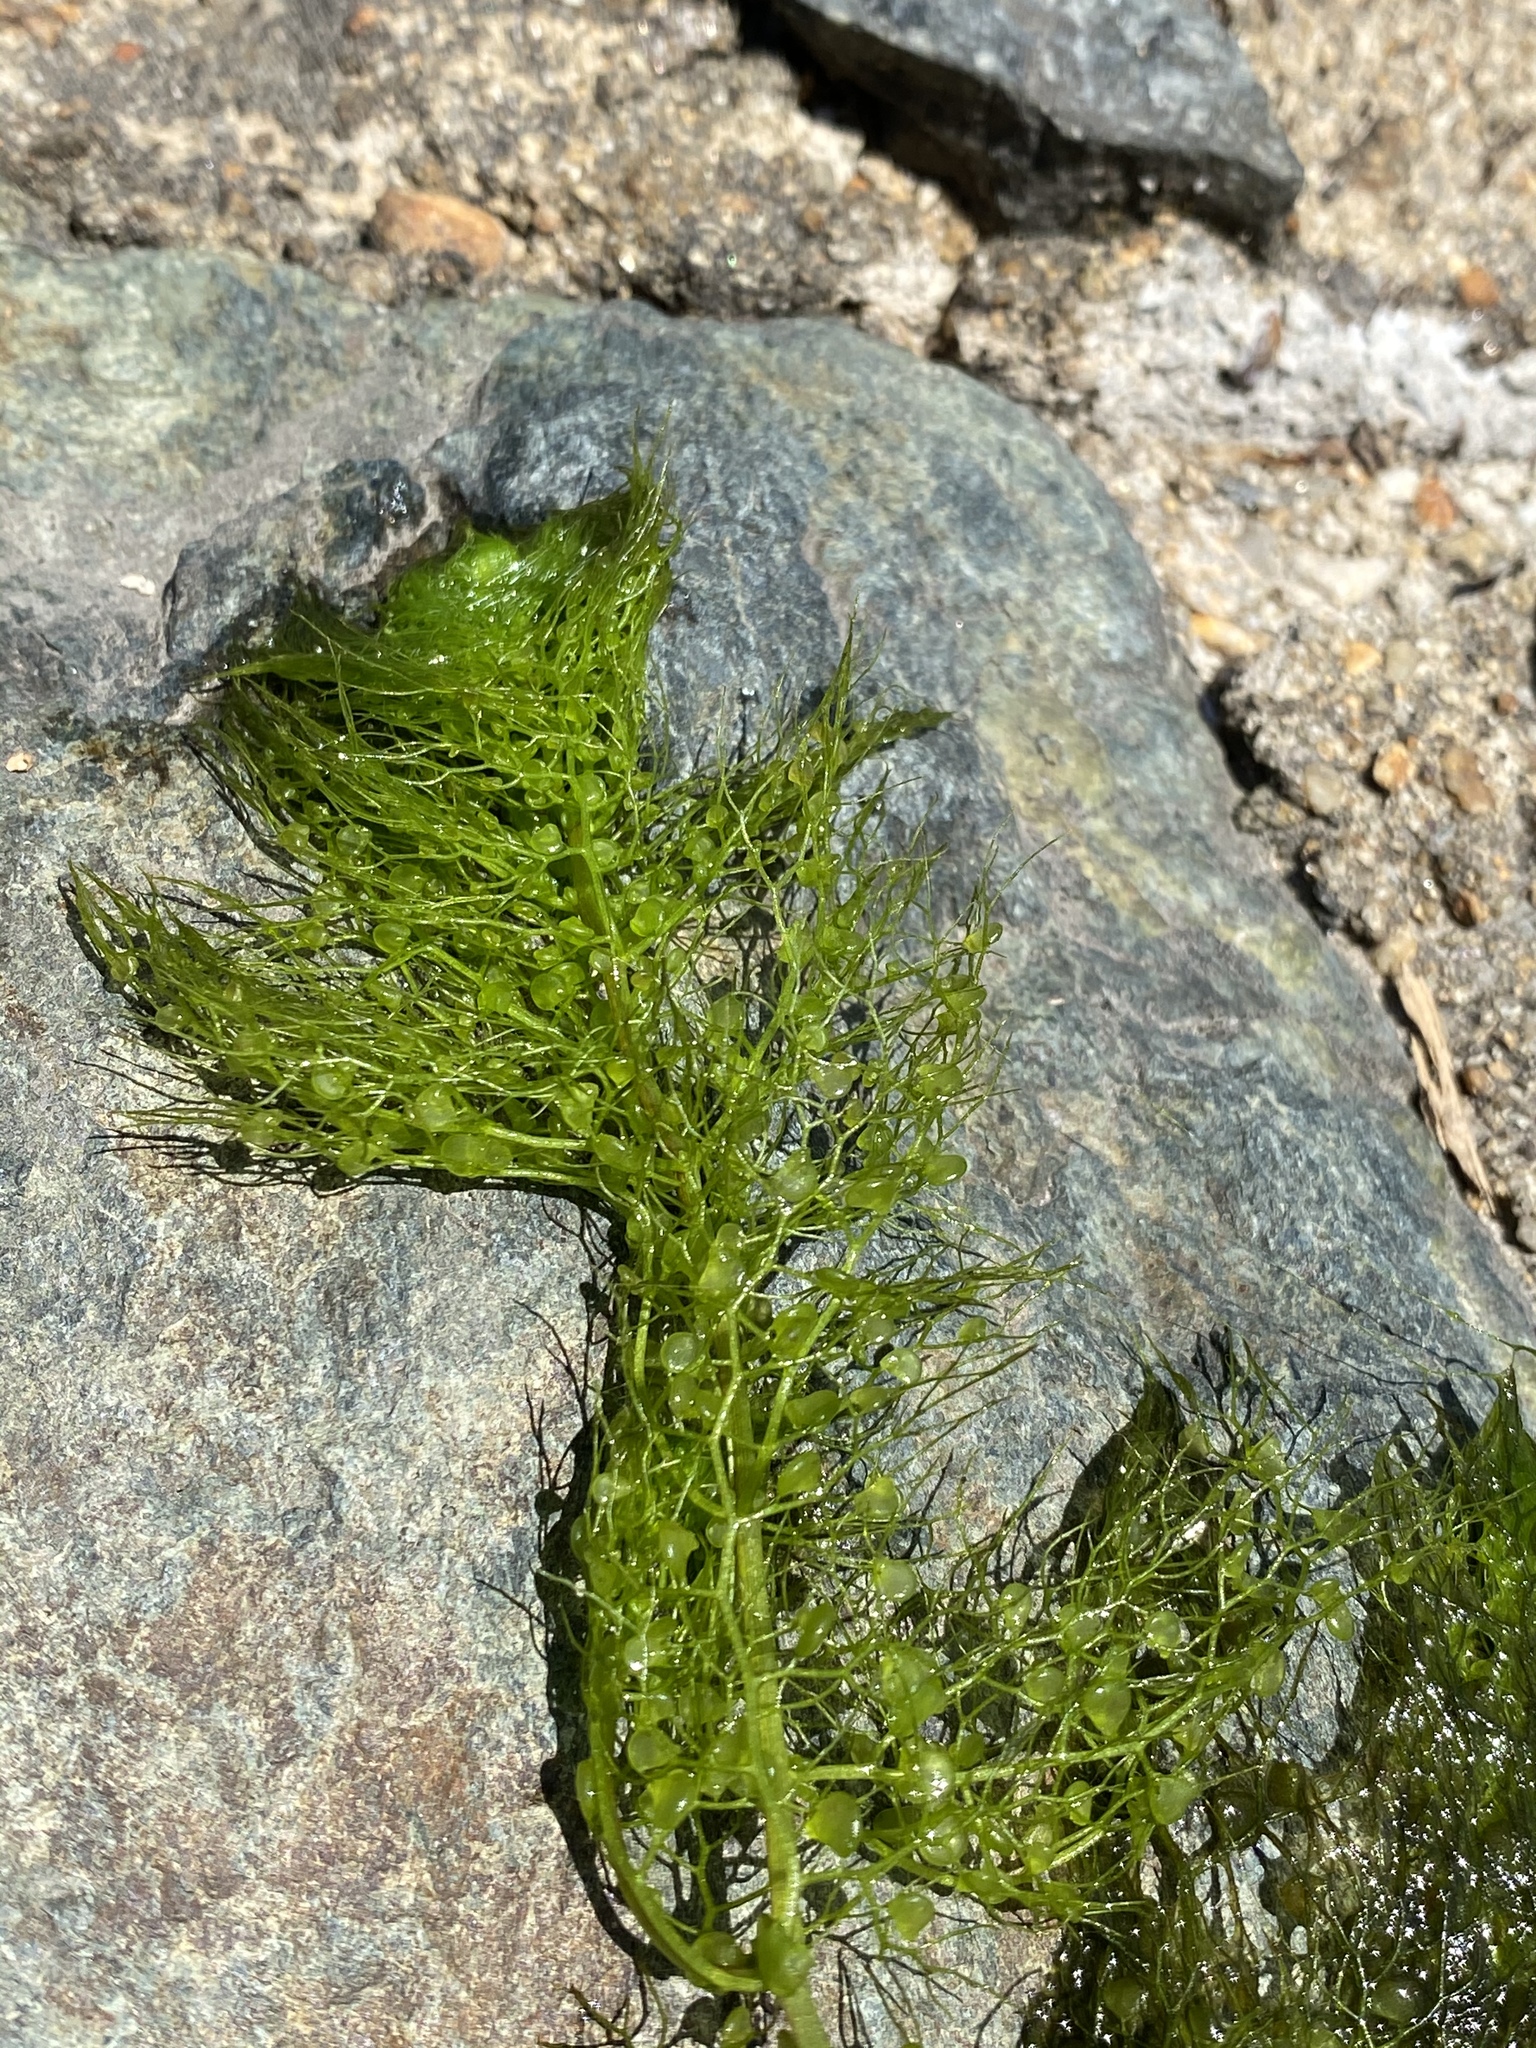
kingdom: Plantae
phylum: Tracheophyta
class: Magnoliopsida
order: Lamiales
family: Lentibulariaceae
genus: Utricularia
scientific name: Utricularia macrorhiza
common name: Common bladderwort
